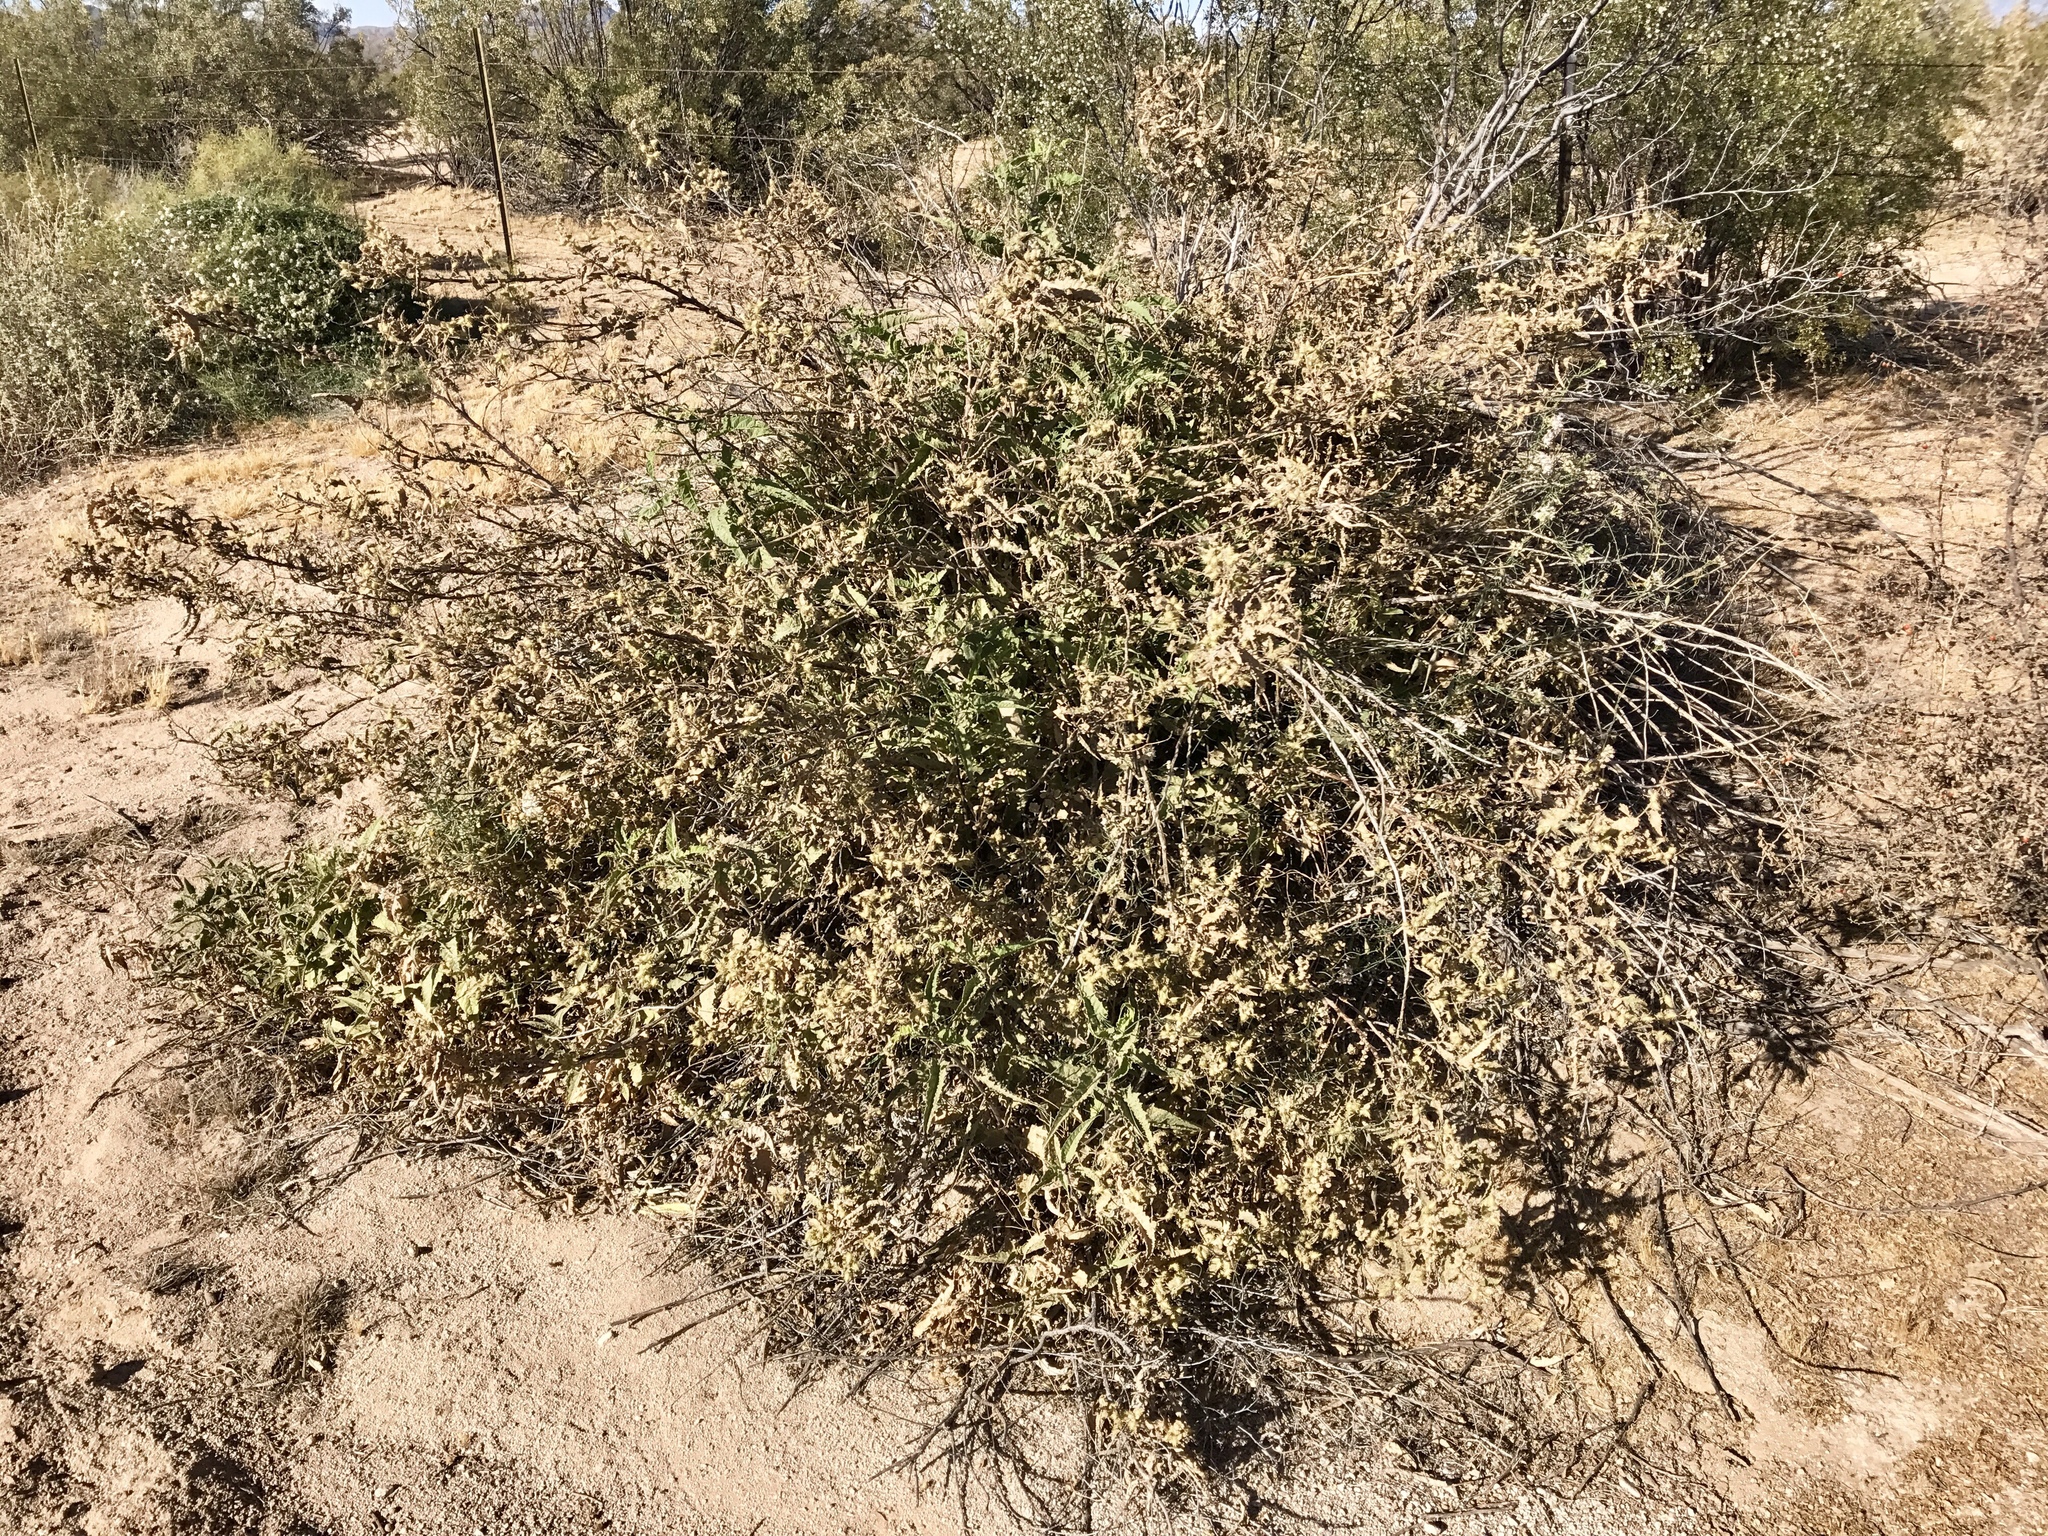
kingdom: Plantae
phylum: Tracheophyta
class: Magnoliopsida
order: Asterales
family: Asteraceae
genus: Ambrosia
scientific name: Ambrosia ambrosioides
